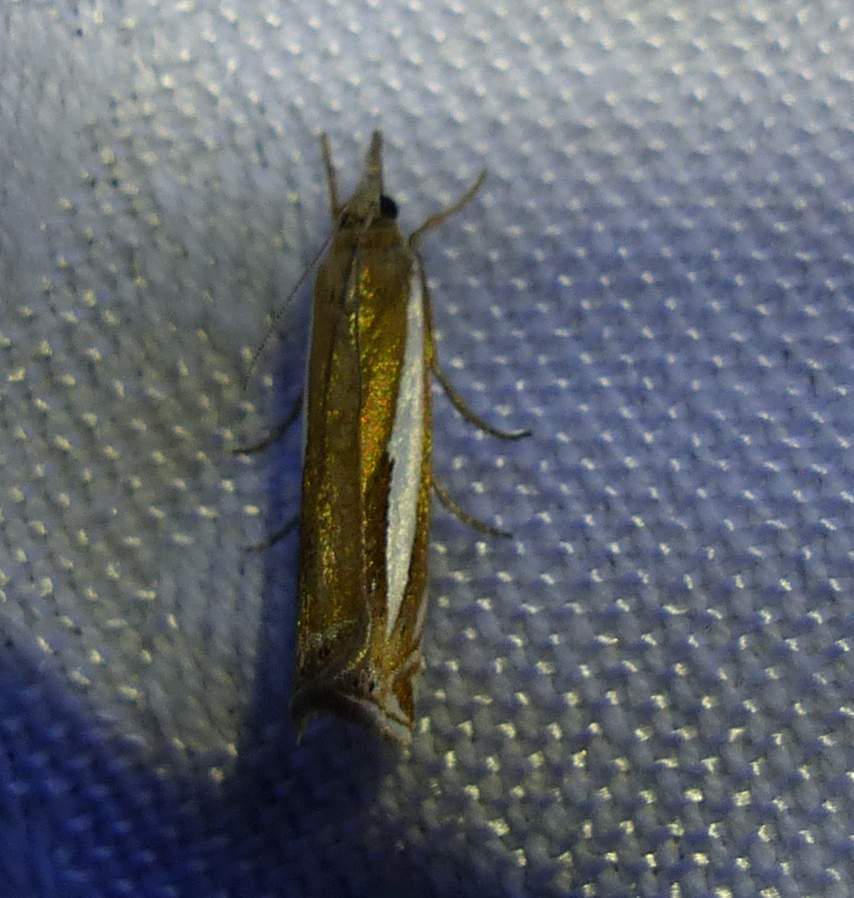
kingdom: Animalia
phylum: Arthropoda
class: Insecta
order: Lepidoptera
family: Crambidae
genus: Crambus
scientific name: Crambus praefectellus
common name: Common grass-veneer
